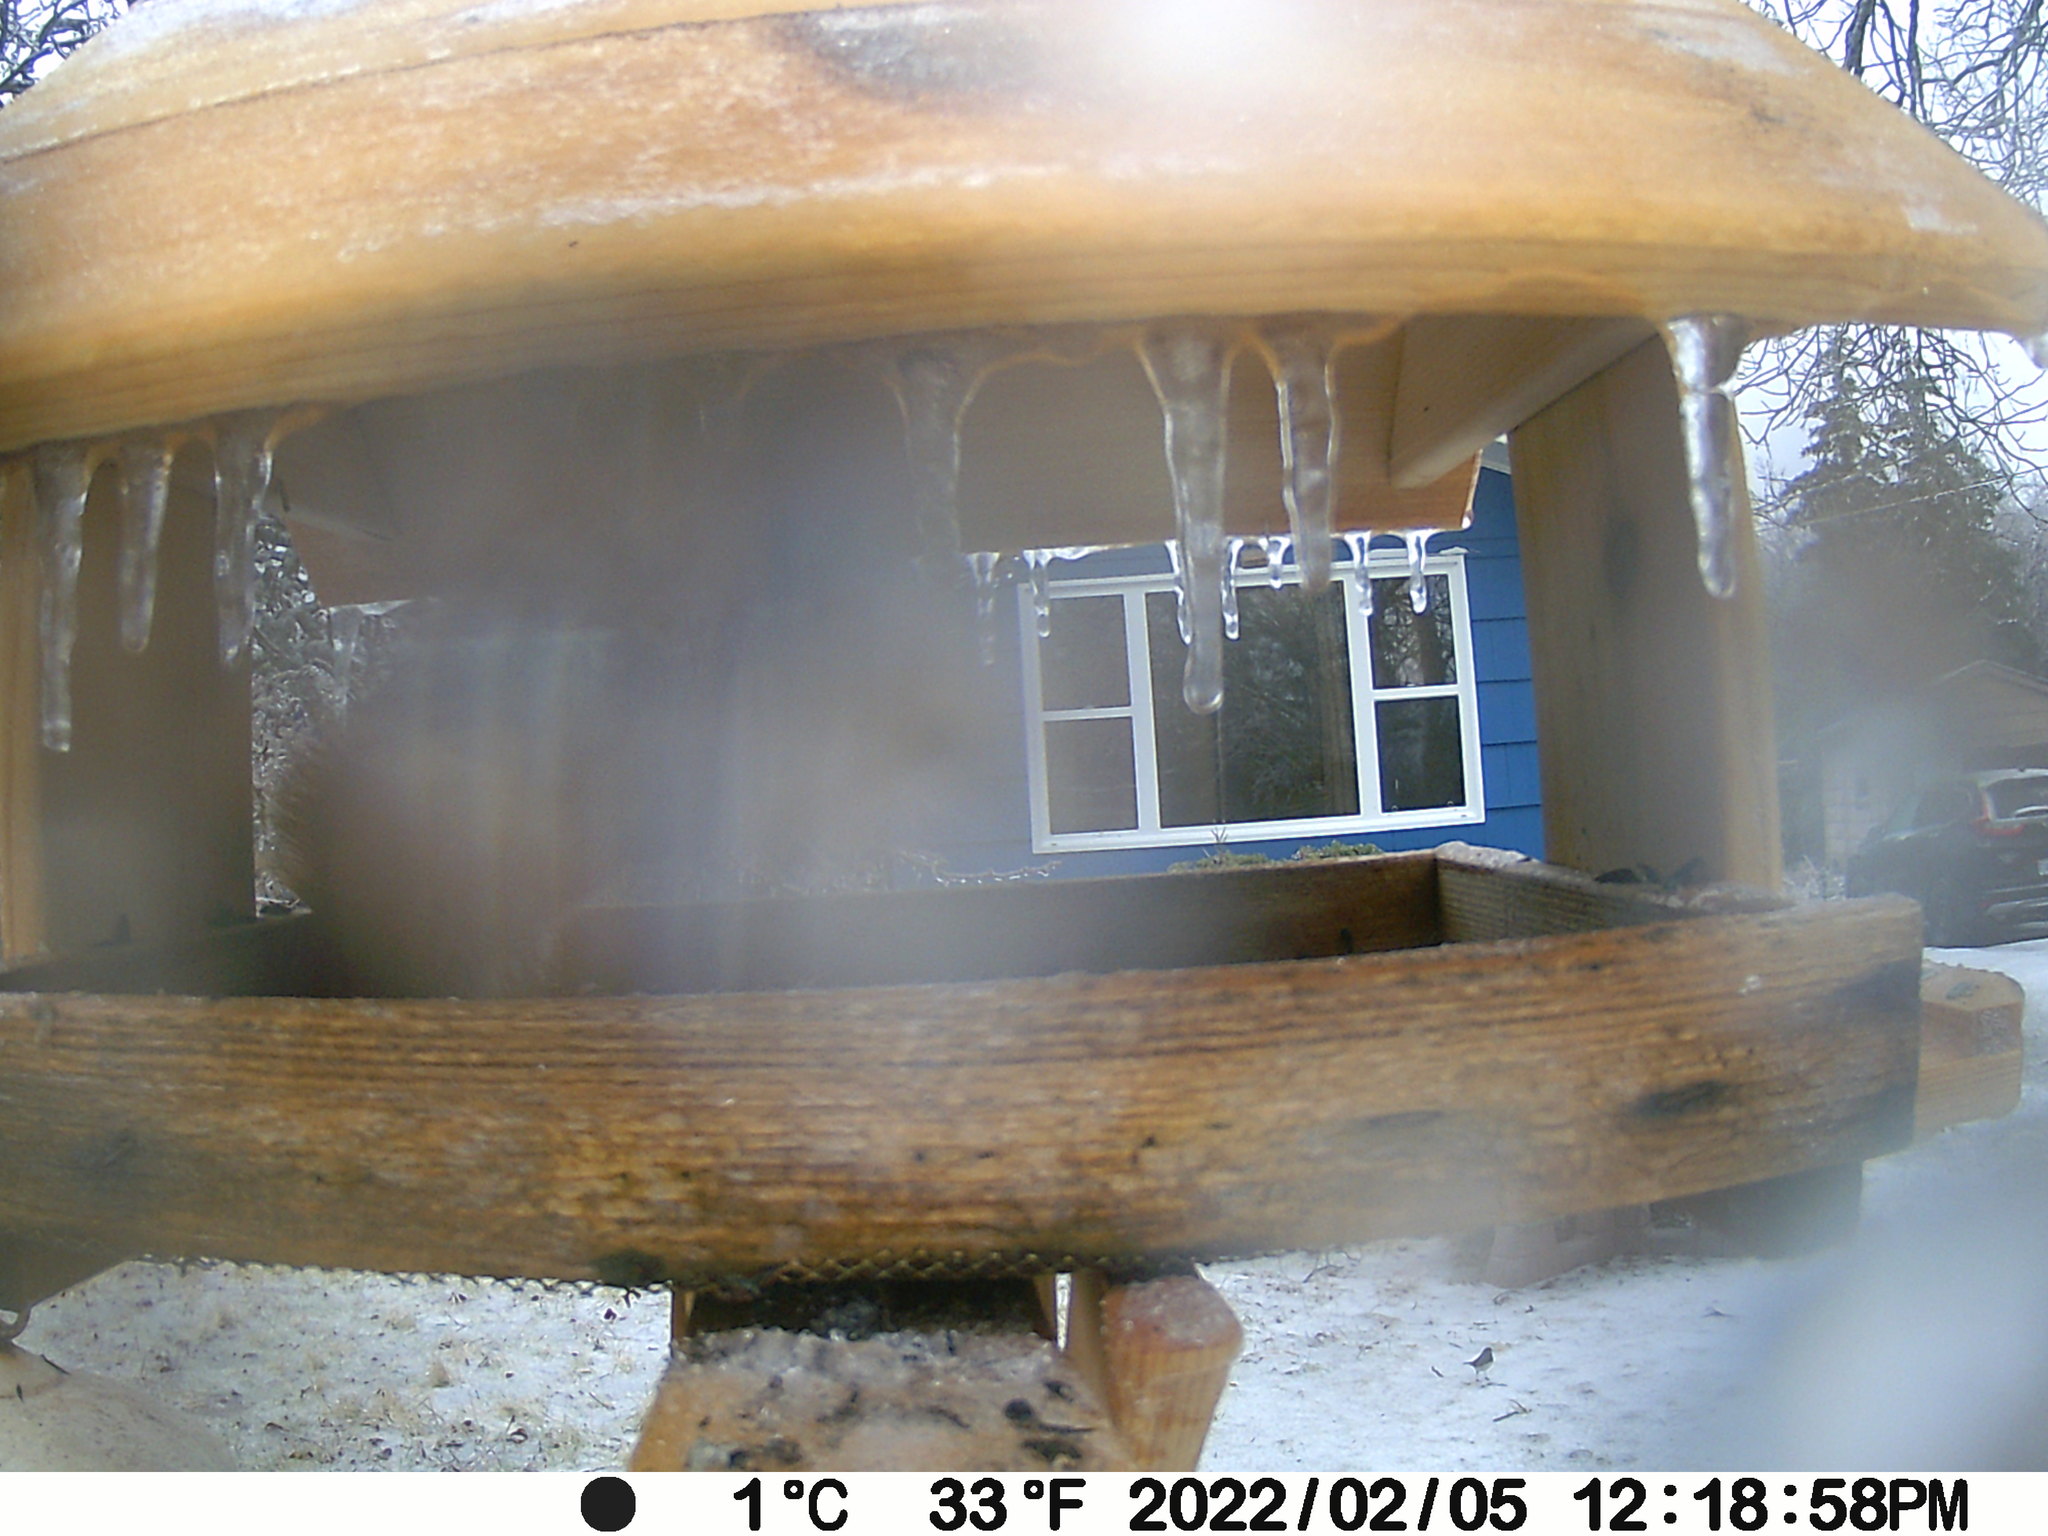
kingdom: Animalia
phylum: Chordata
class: Aves
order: Passeriformes
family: Passerellidae
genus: Junco
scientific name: Junco hyemalis
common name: Dark-eyed junco
